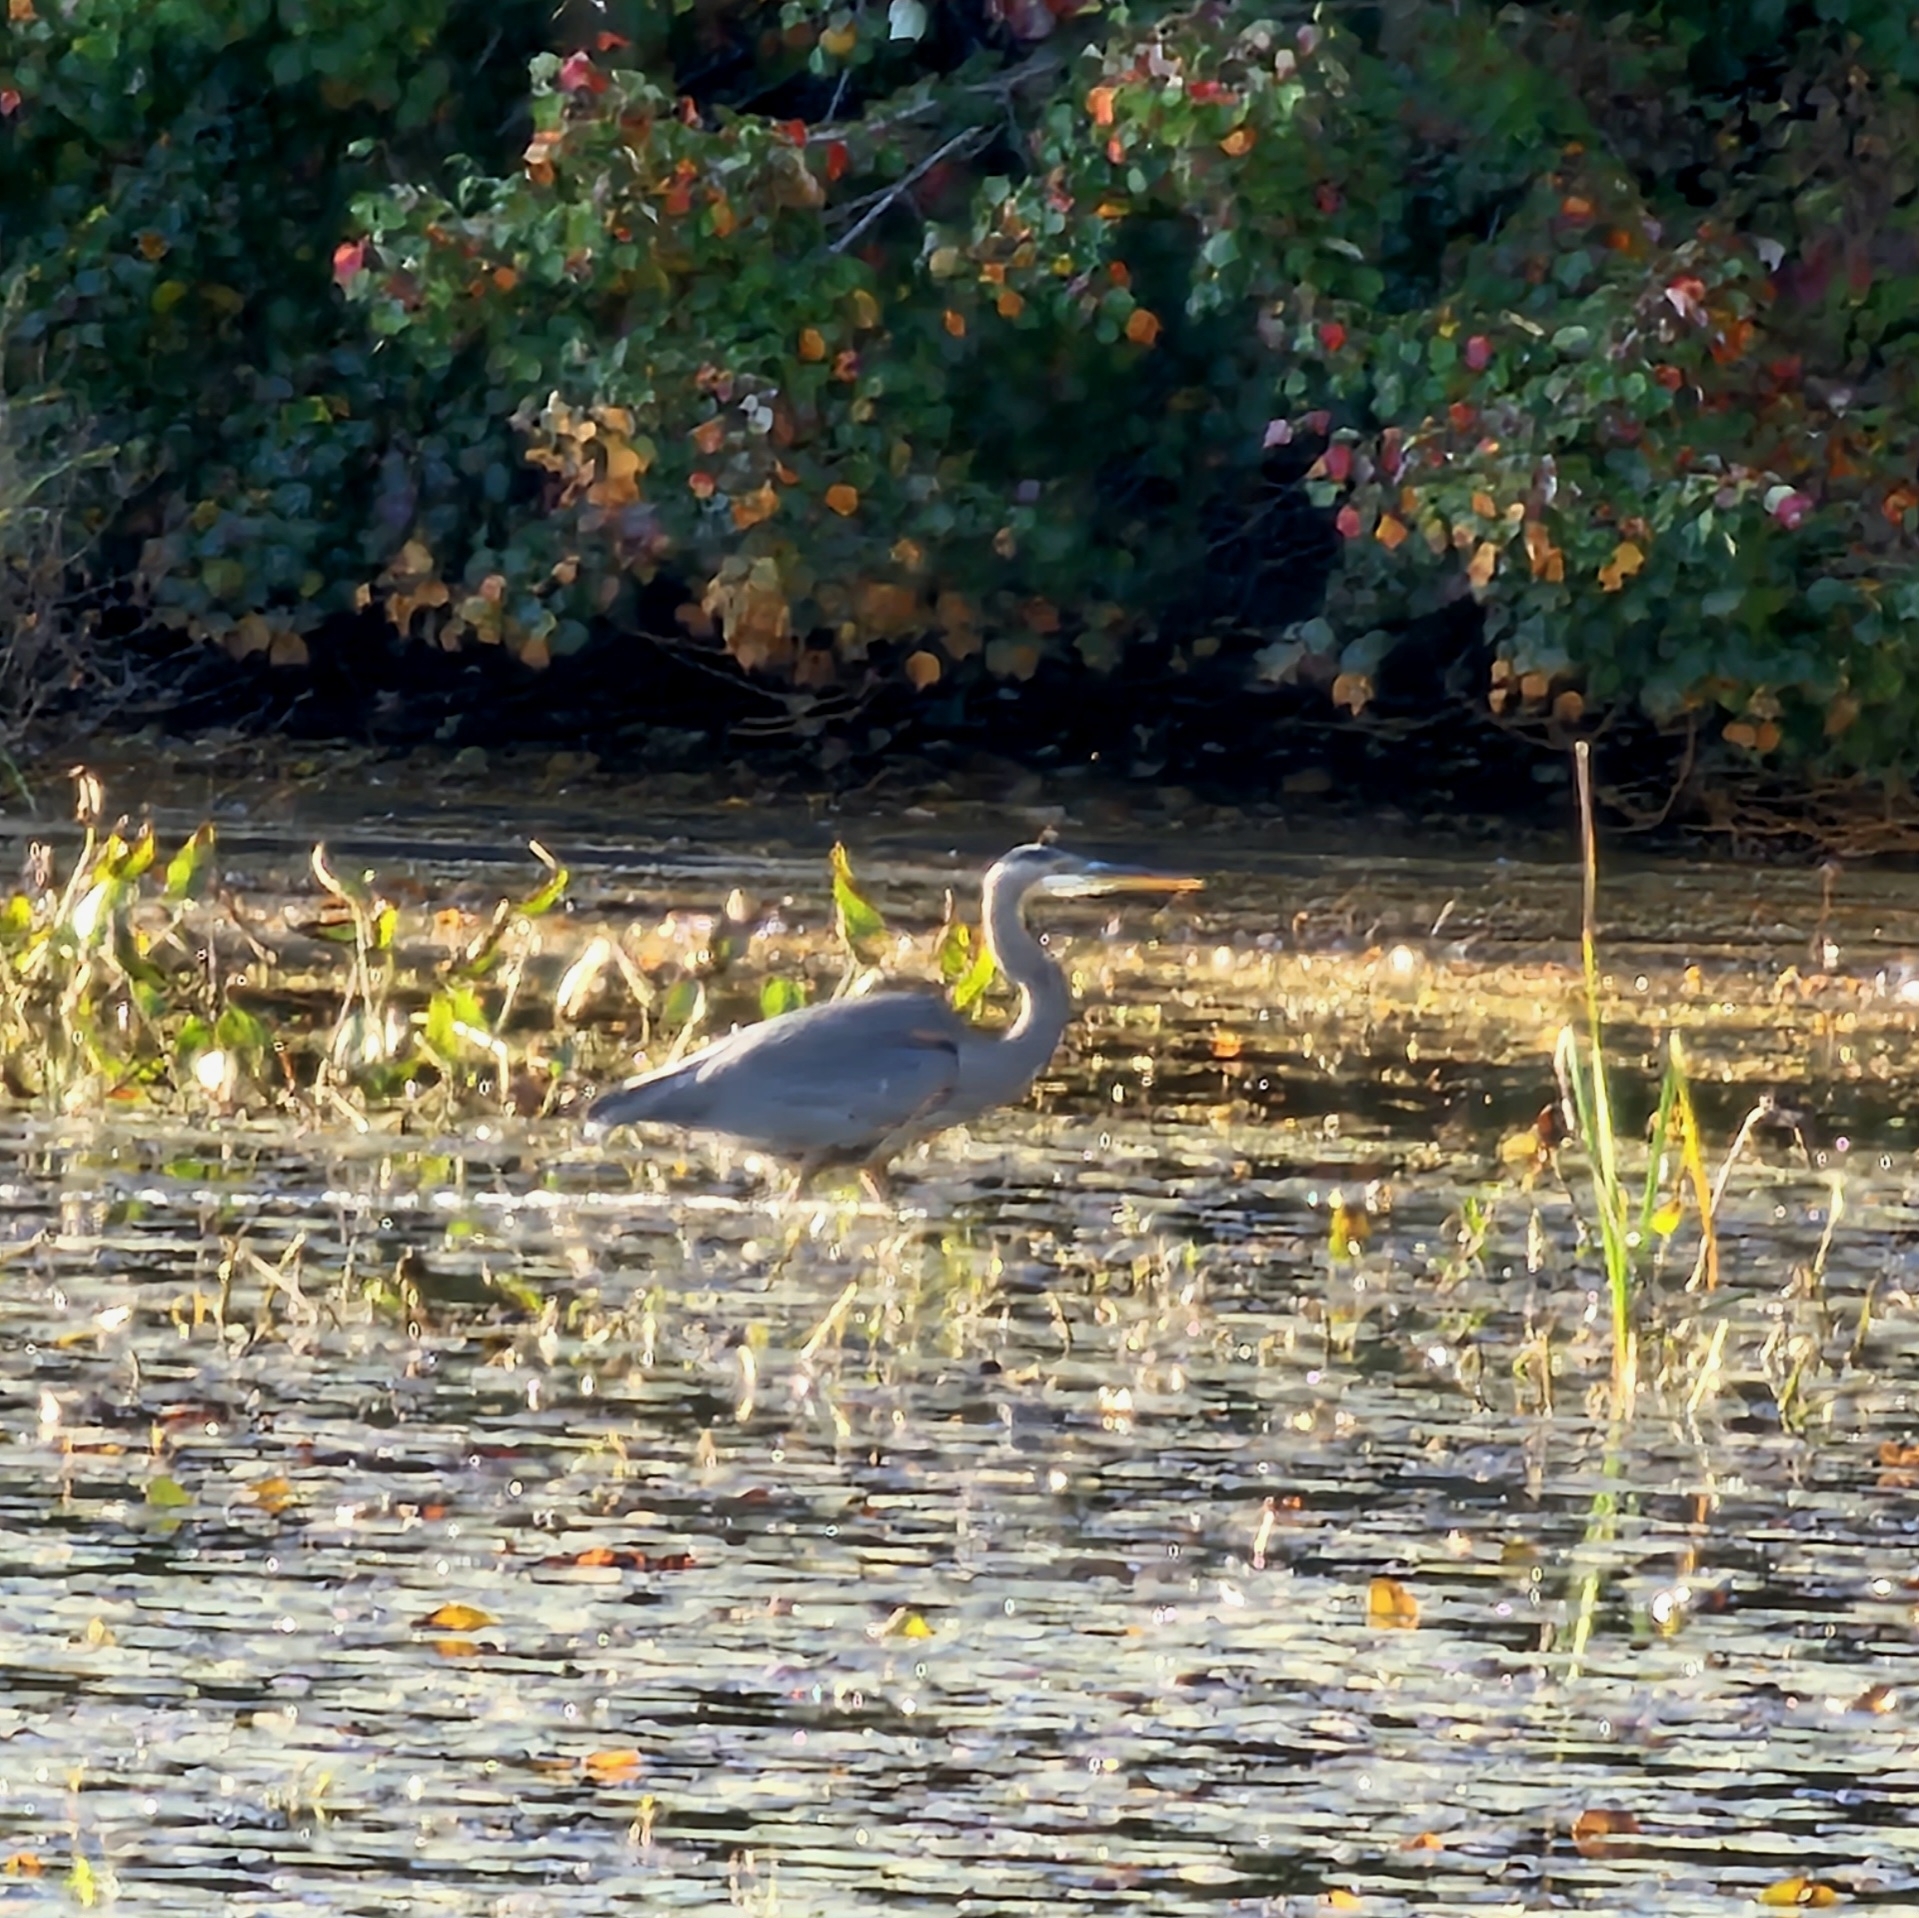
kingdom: Animalia
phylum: Chordata
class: Aves
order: Pelecaniformes
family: Ardeidae
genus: Ardea
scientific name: Ardea herodias
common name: Great blue heron
